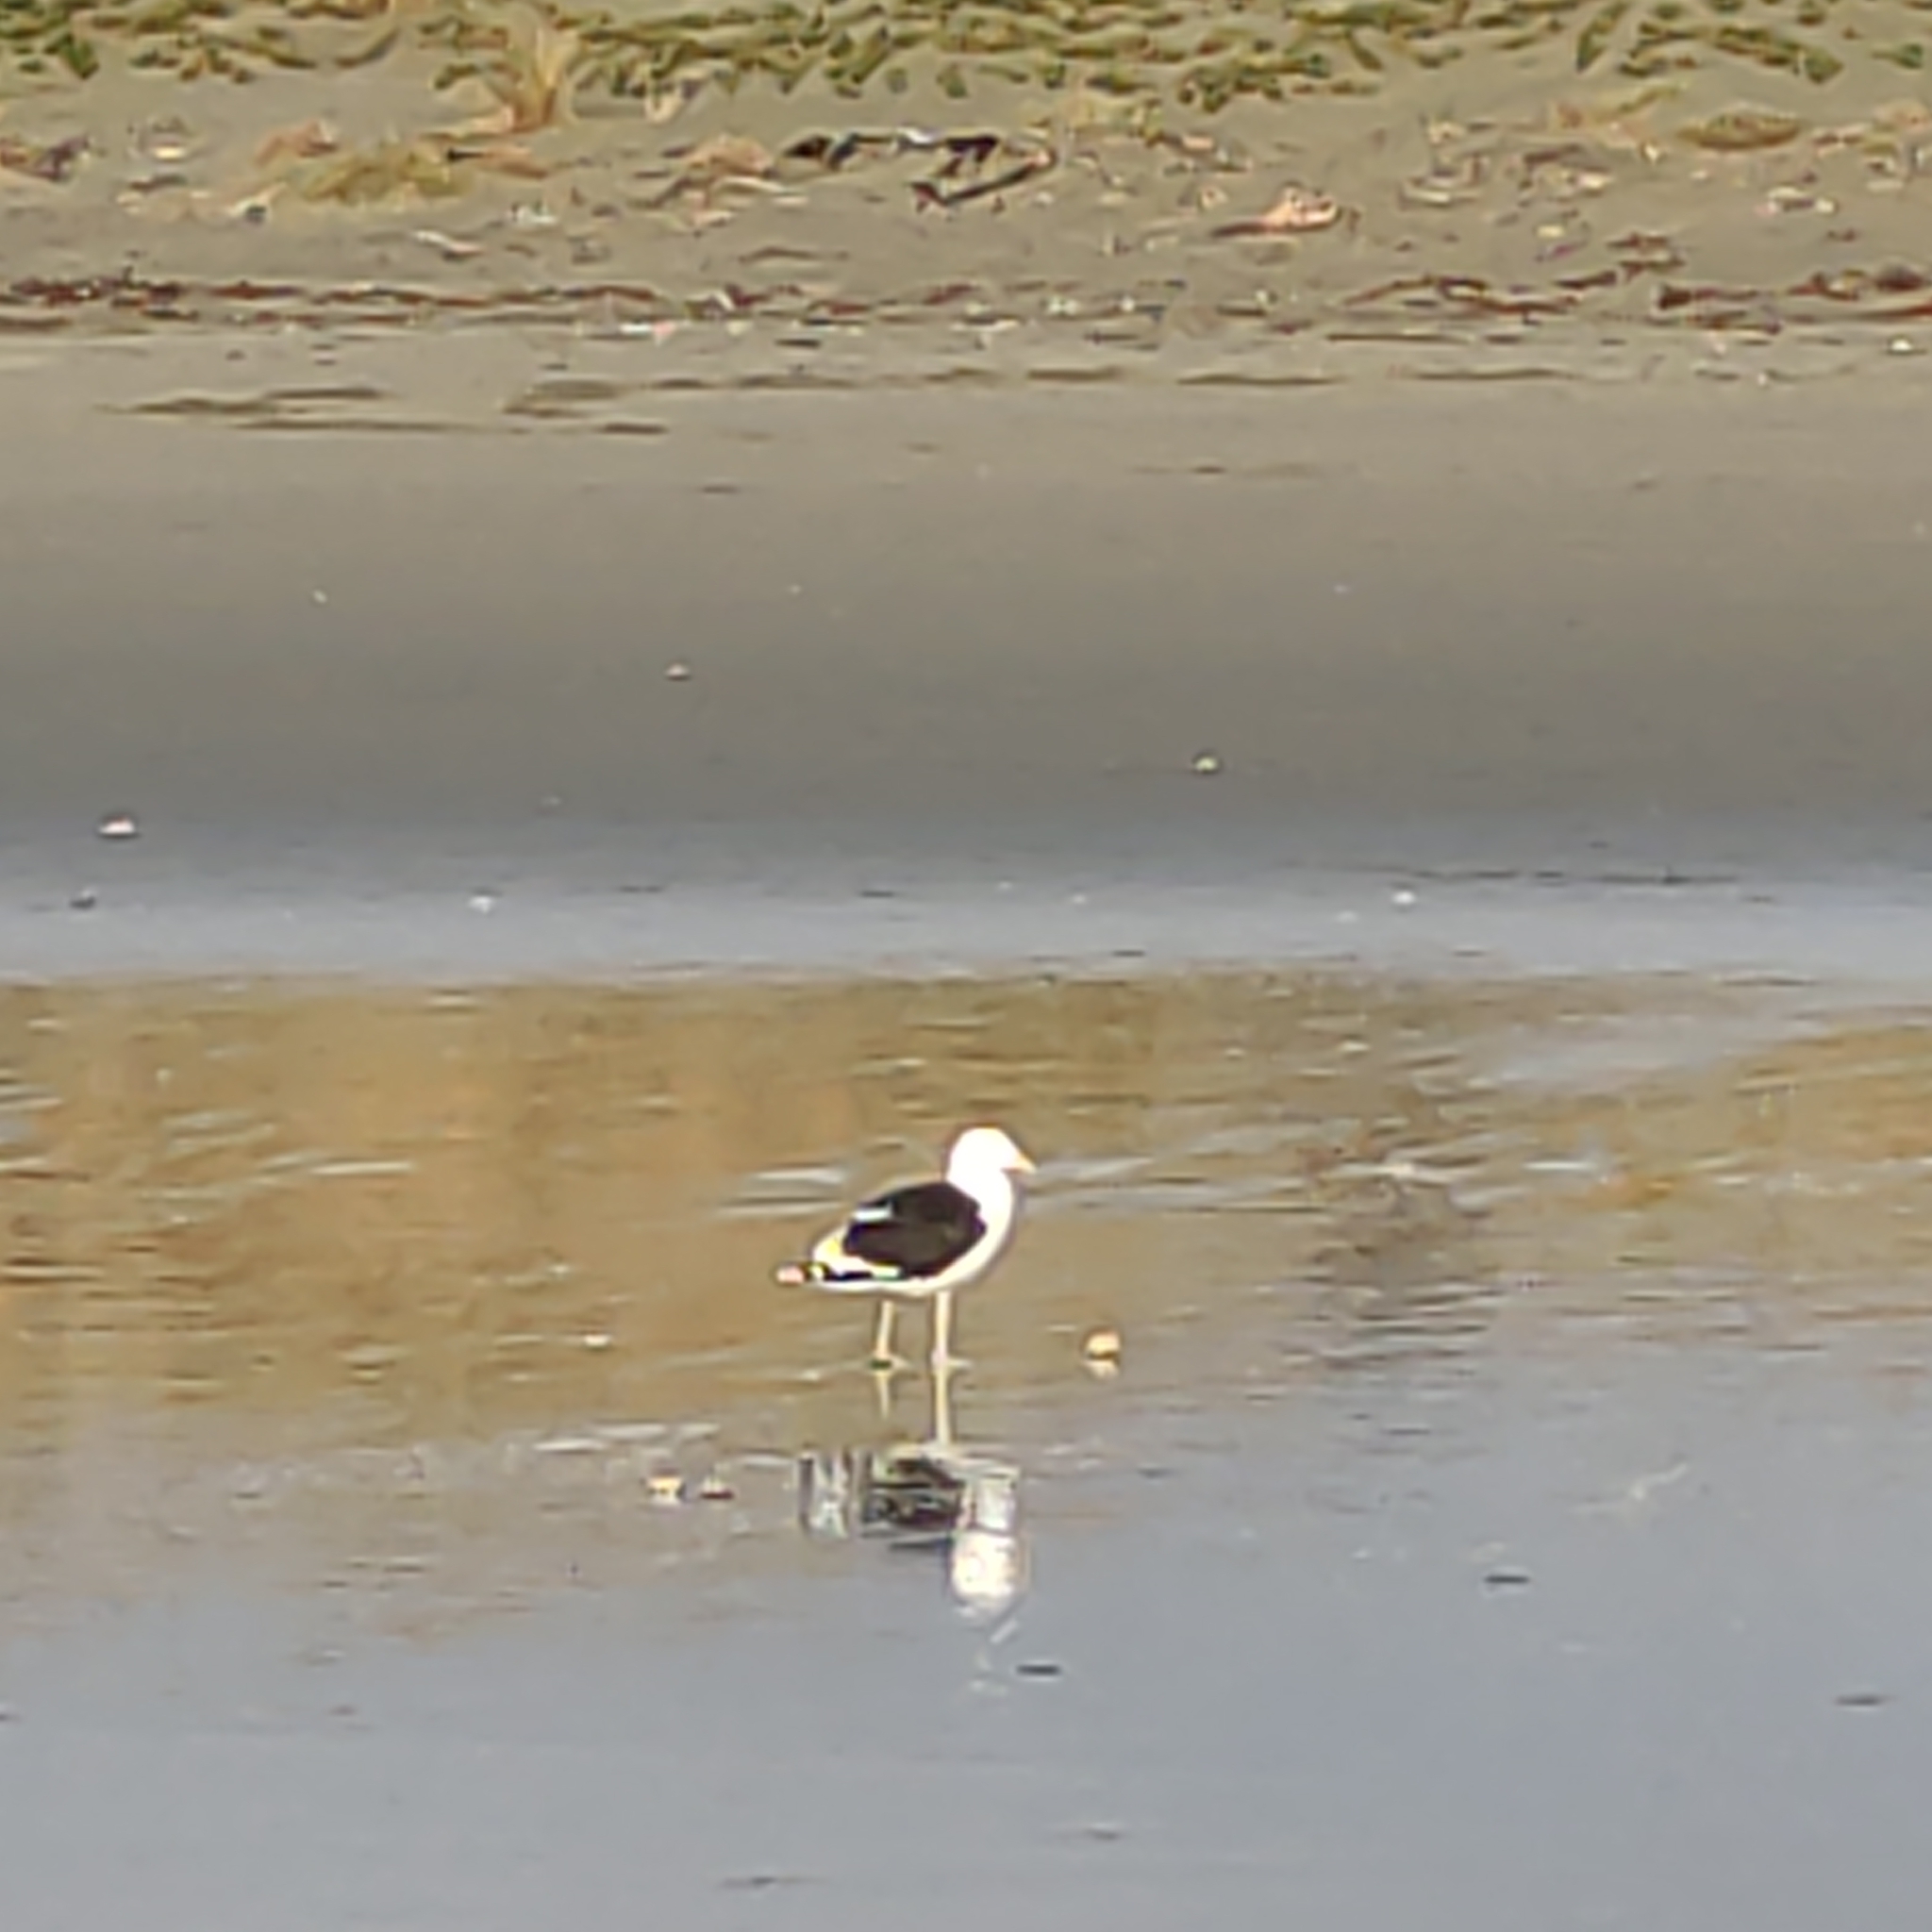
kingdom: Animalia
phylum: Chordata
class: Aves
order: Charadriiformes
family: Laridae
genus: Larus
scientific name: Larus dominicanus
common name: Kelp gull
